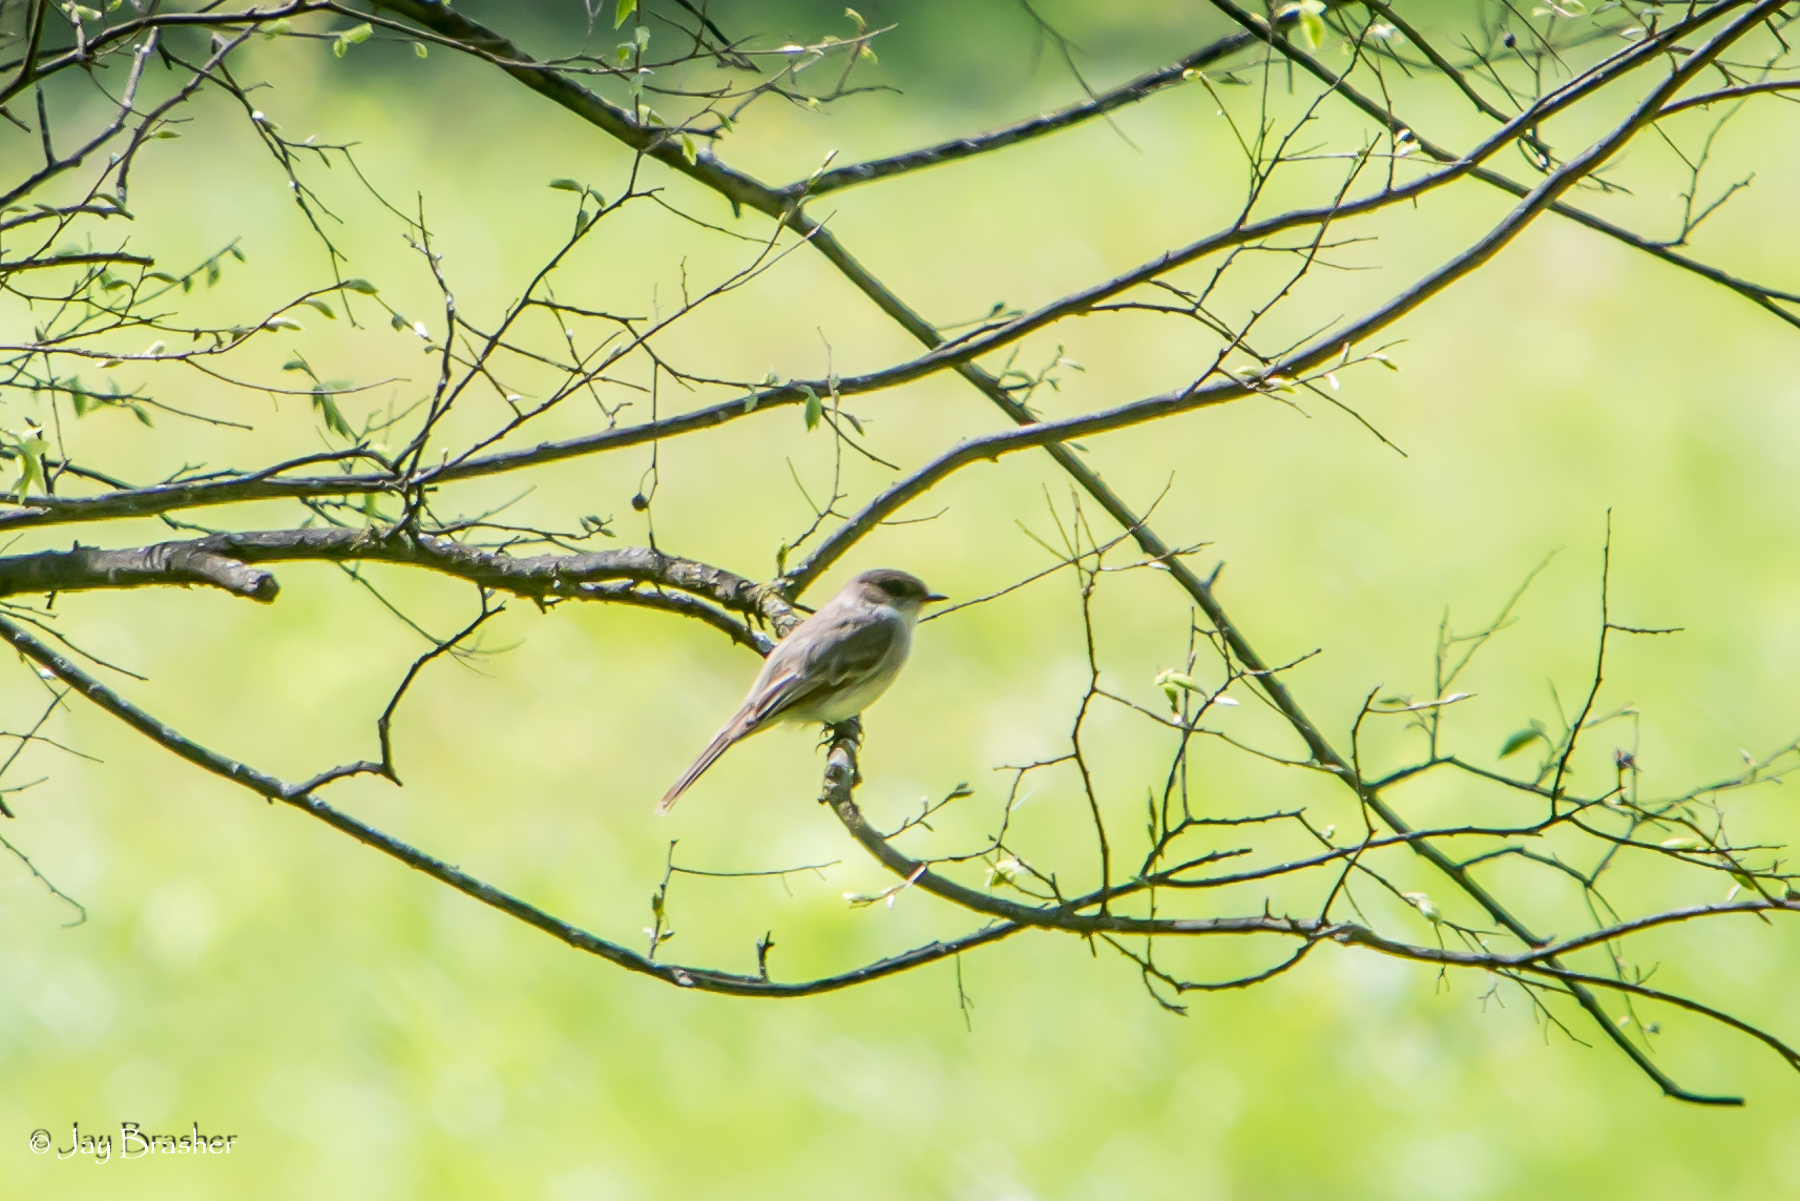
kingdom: Animalia
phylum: Chordata
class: Aves
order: Passeriformes
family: Tyrannidae
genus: Sayornis
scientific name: Sayornis phoebe
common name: Eastern phoebe
